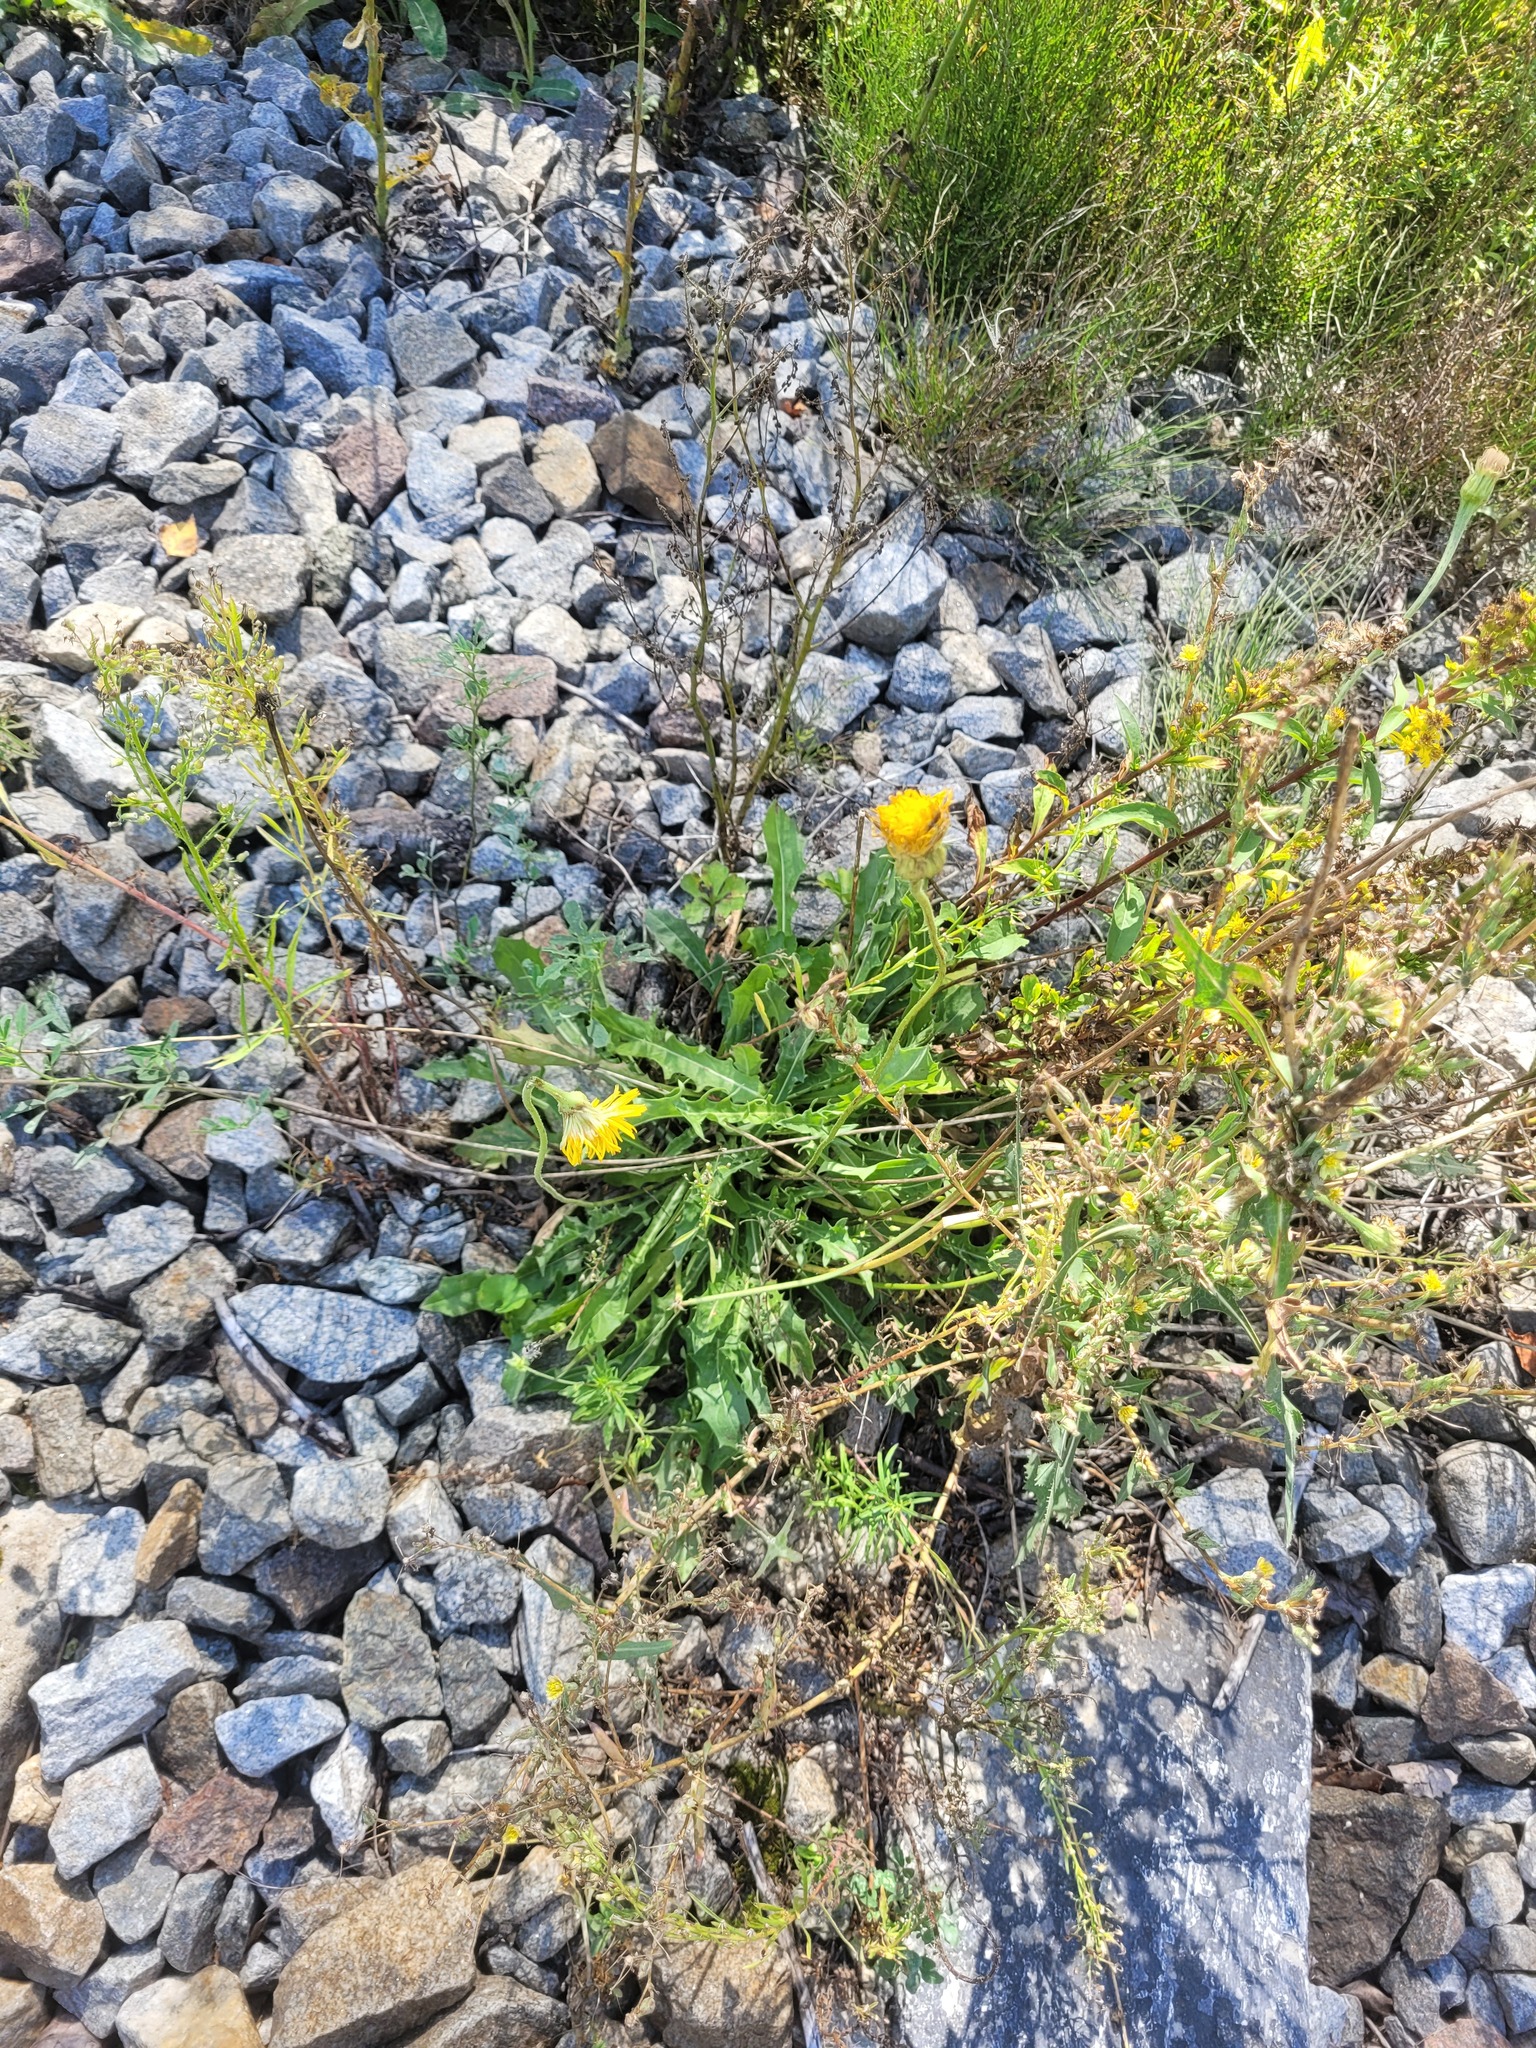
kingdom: Plantae
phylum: Tracheophyta
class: Magnoliopsida
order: Asterales
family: Asteraceae
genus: Leontodon
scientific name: Leontodon hispidus
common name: Rough hawkbit
